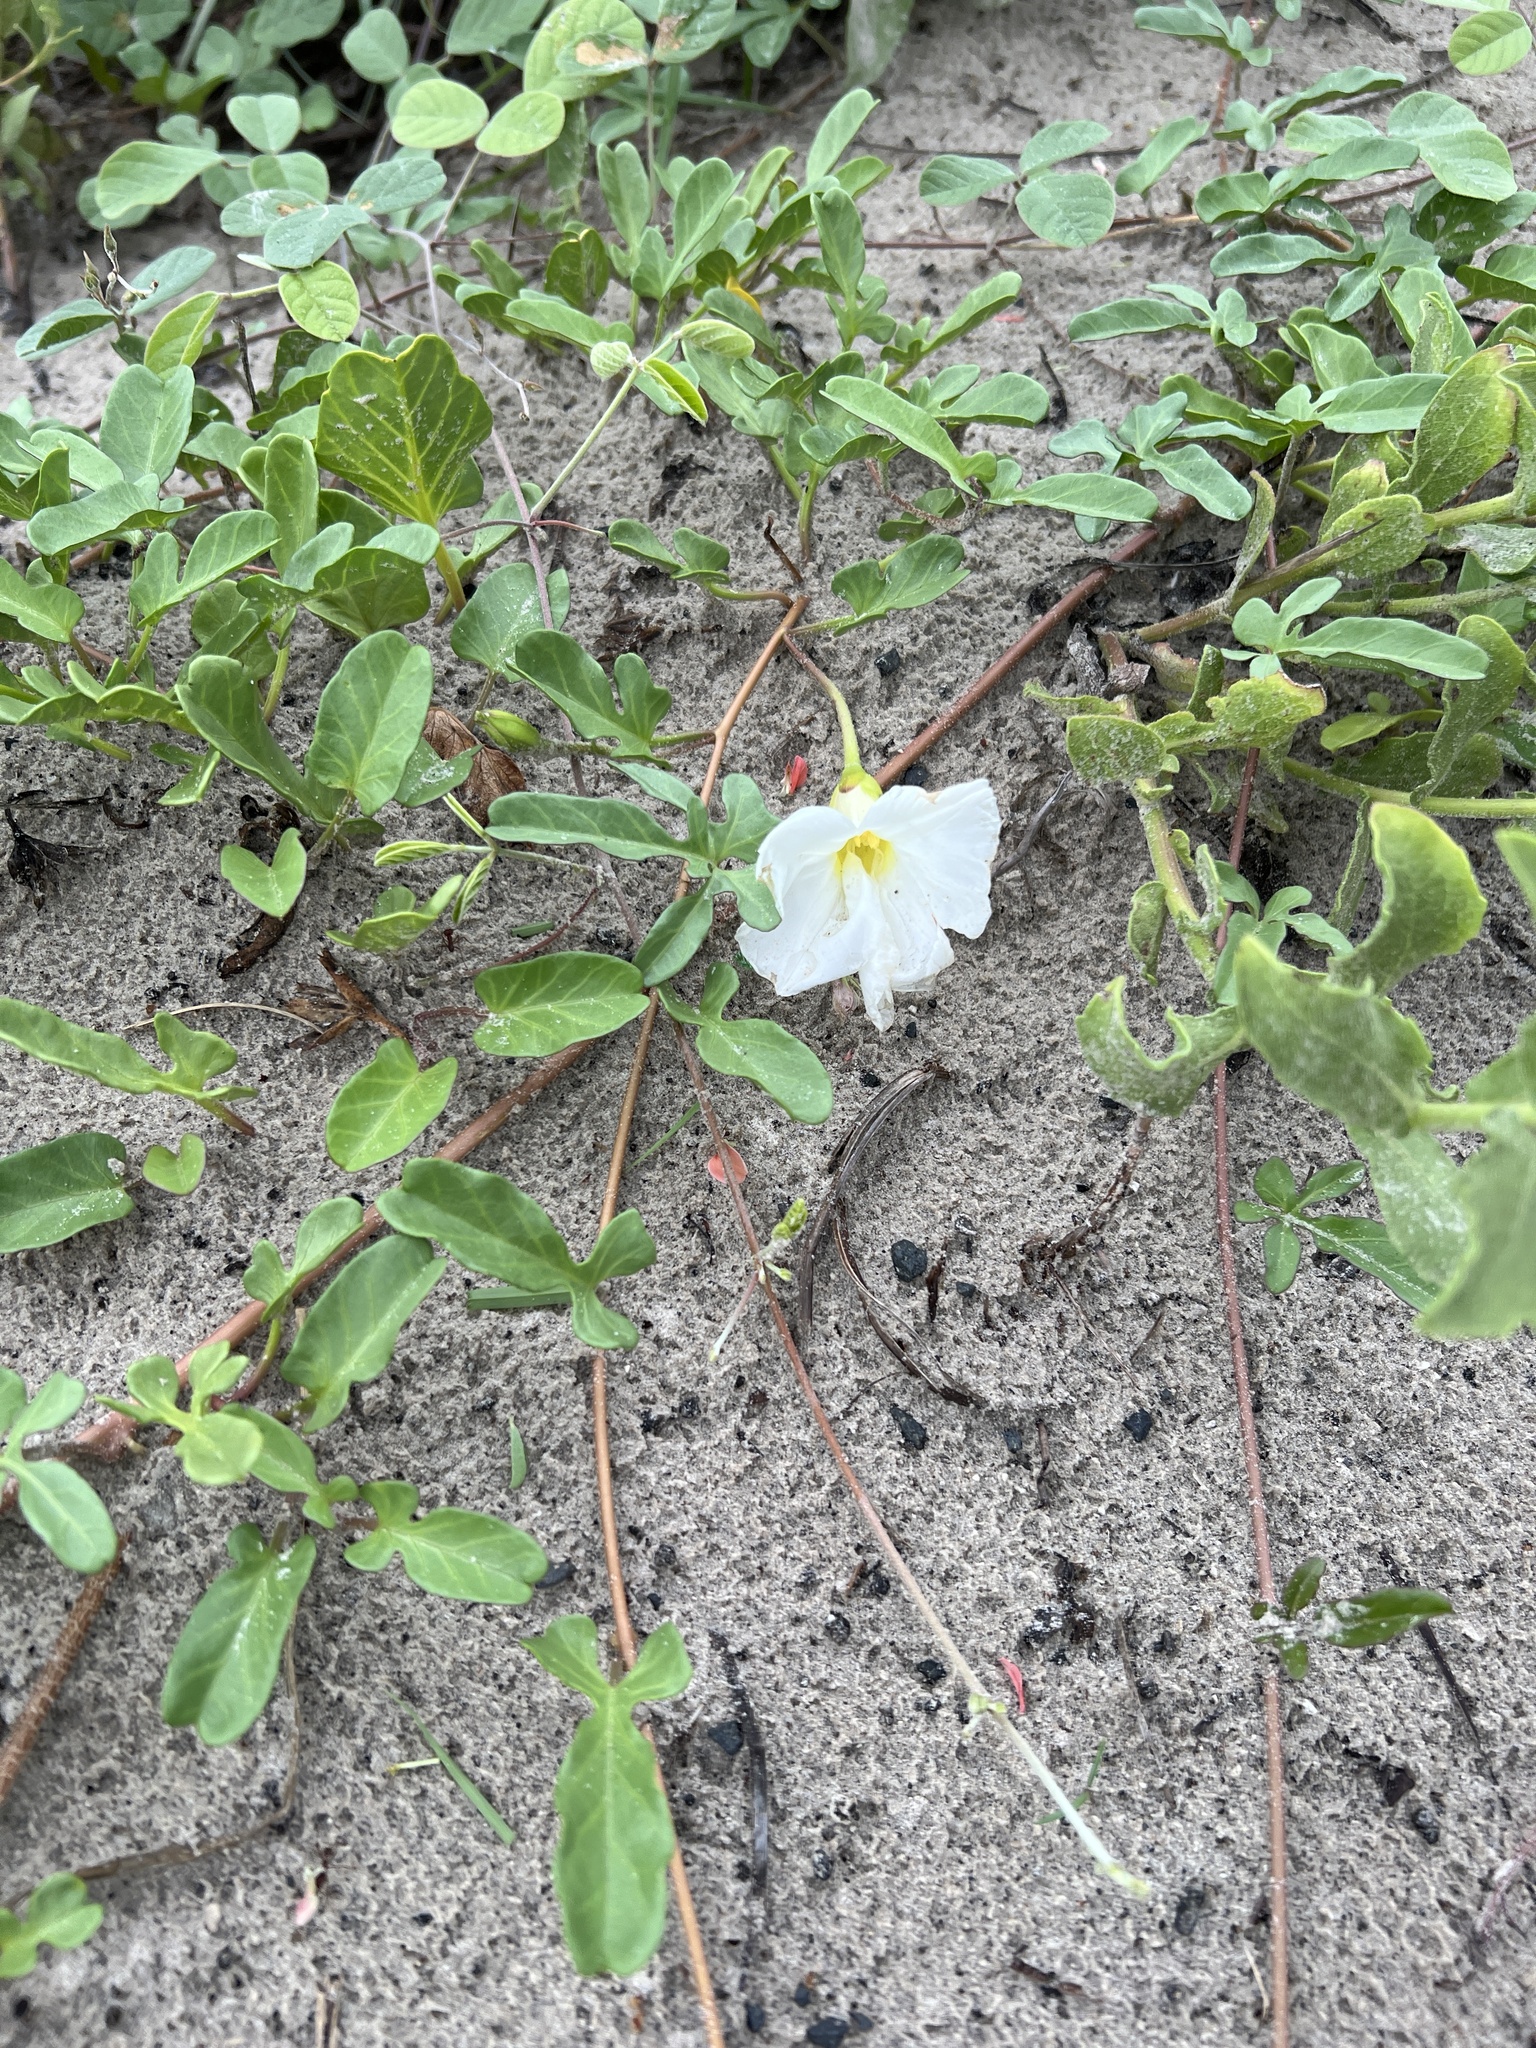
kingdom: Plantae
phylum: Tracheophyta
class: Magnoliopsida
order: Solanales
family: Convolvulaceae
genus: Ipomoea
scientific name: Ipomoea imperati
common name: Fiddle-leaf morning-glory
